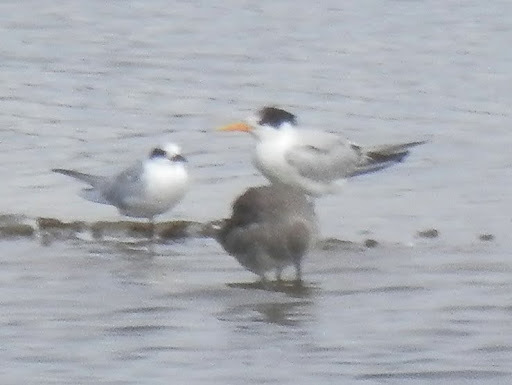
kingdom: Animalia
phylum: Chordata
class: Aves
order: Charadriiformes
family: Laridae
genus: Thalasseus
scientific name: Thalasseus elegans
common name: Elegant tern
